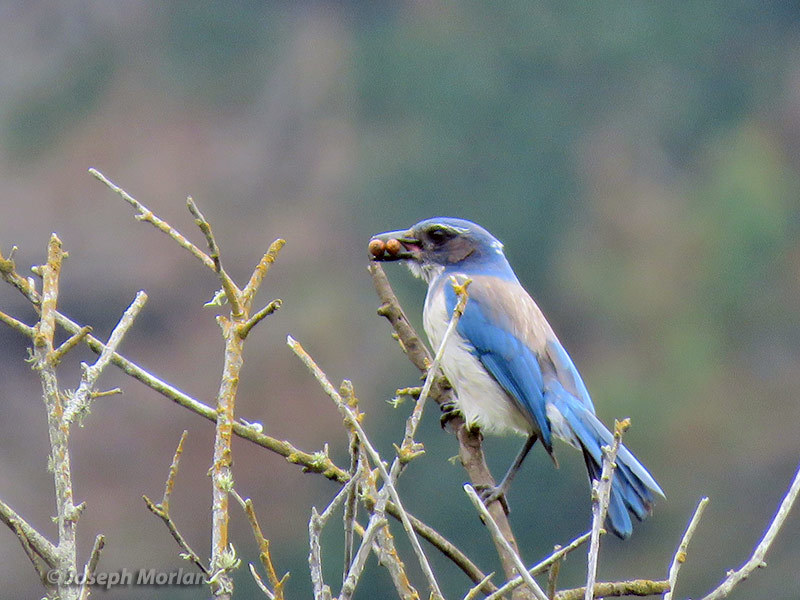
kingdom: Animalia
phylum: Chordata
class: Aves
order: Passeriformes
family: Corvidae
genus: Aphelocoma
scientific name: Aphelocoma californica
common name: California scrub-jay
